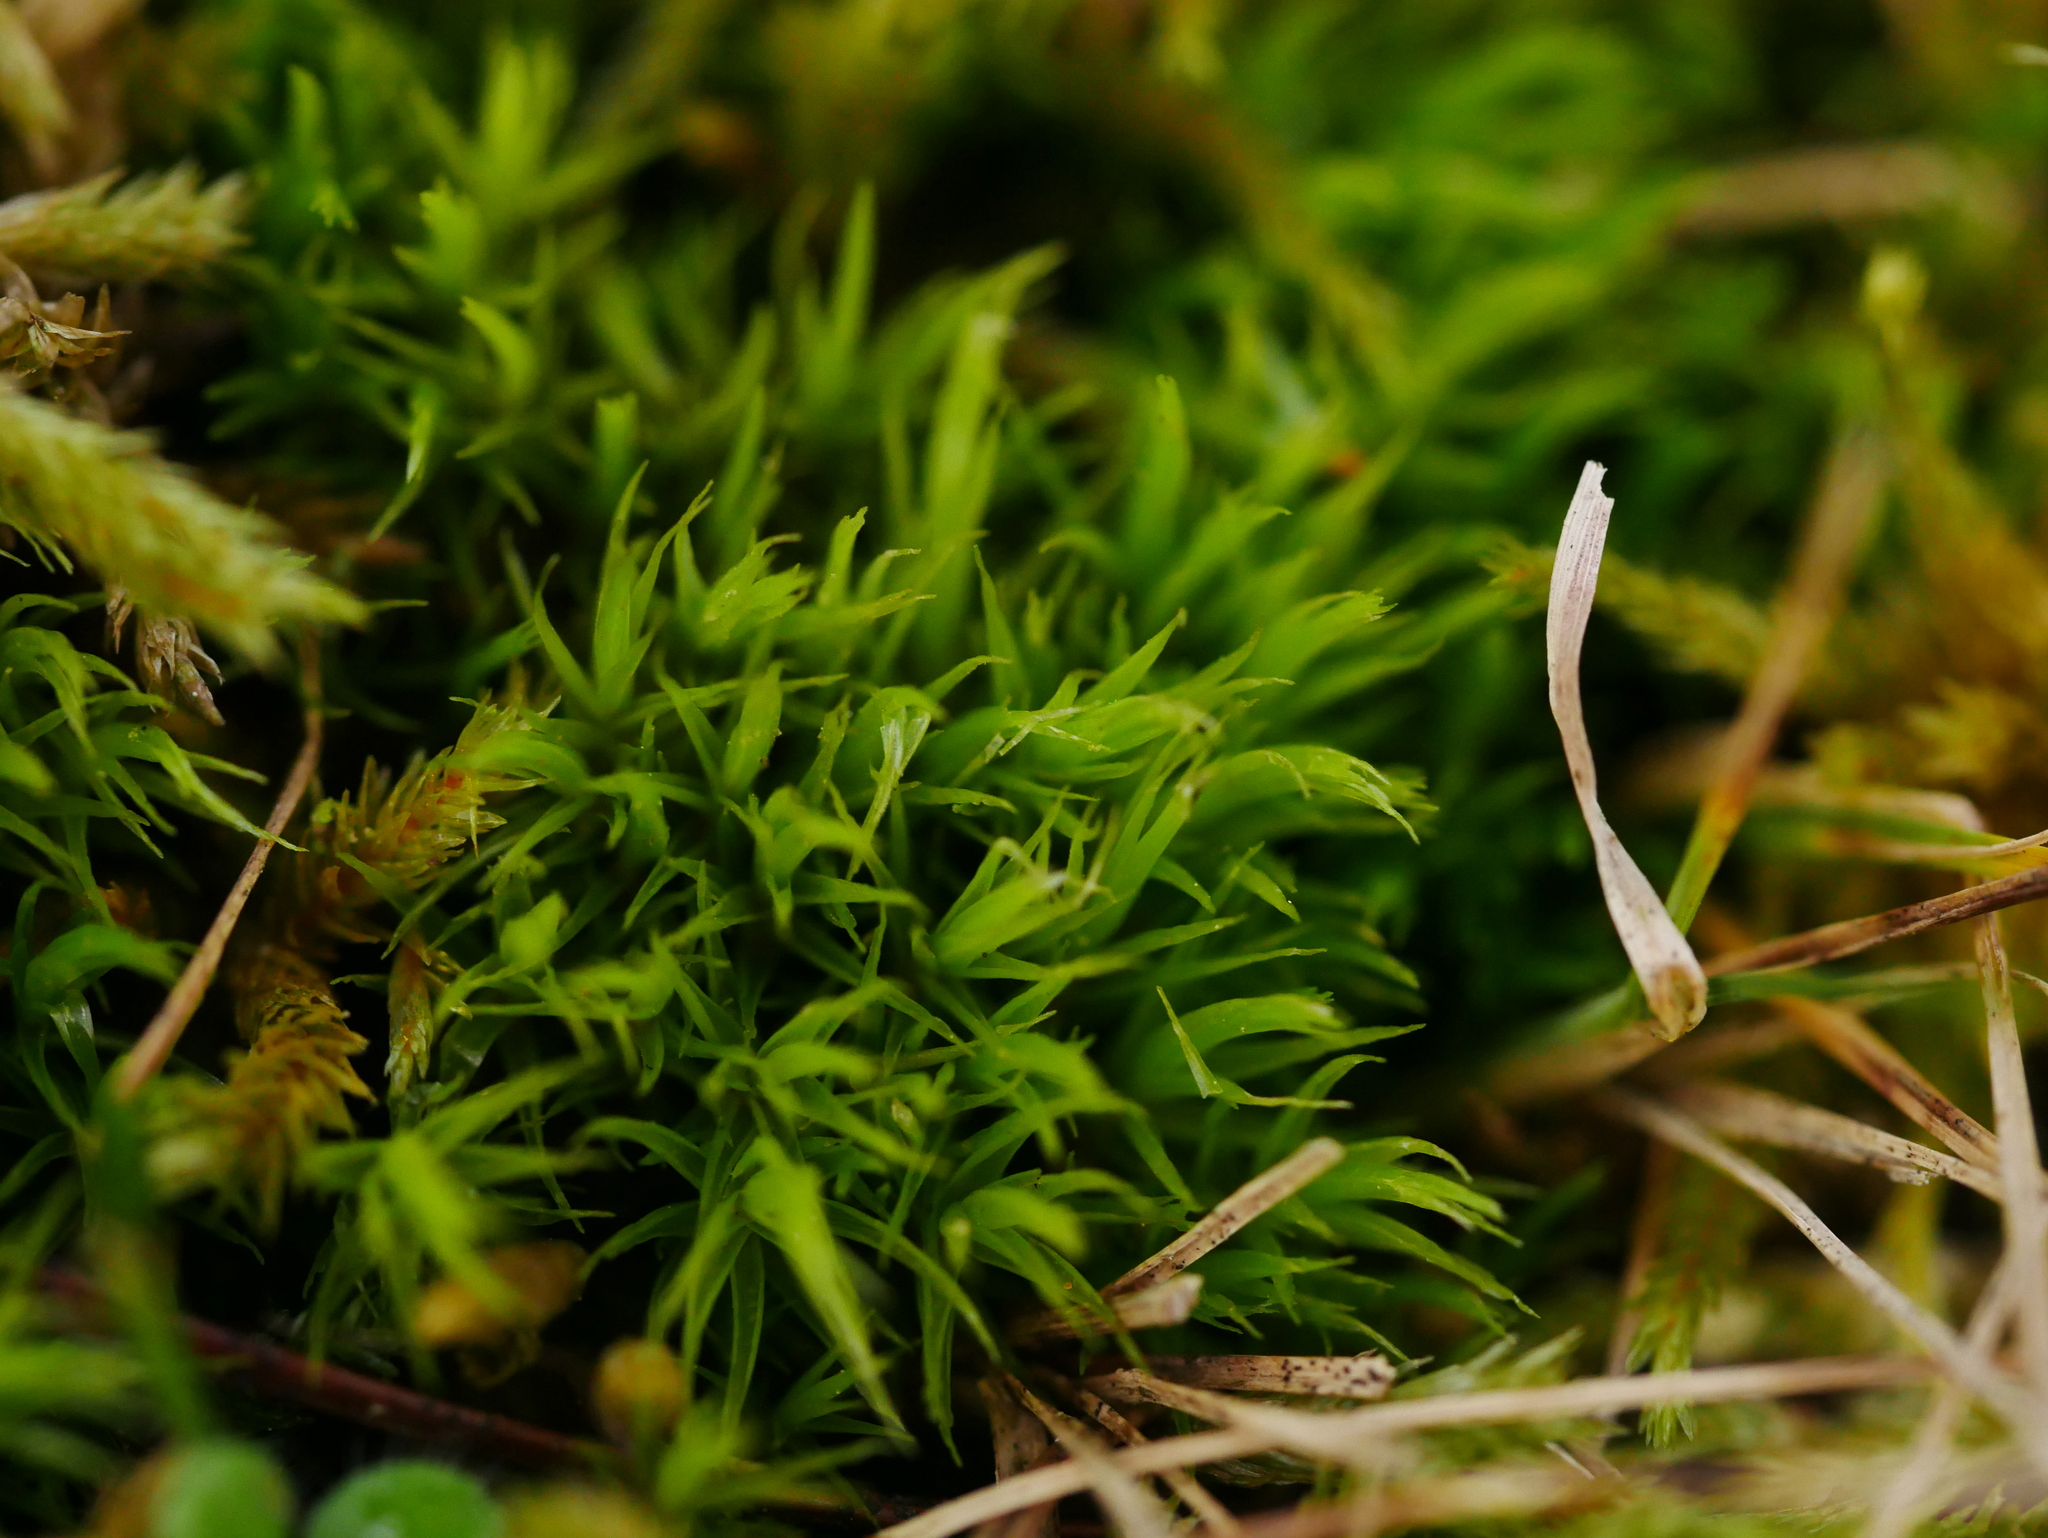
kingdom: Plantae
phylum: Bryophyta
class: Bryopsida
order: Dicranales
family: Dicranaceae
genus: Dicranum
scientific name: Dicranum scoparium
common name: Broom fork-moss
